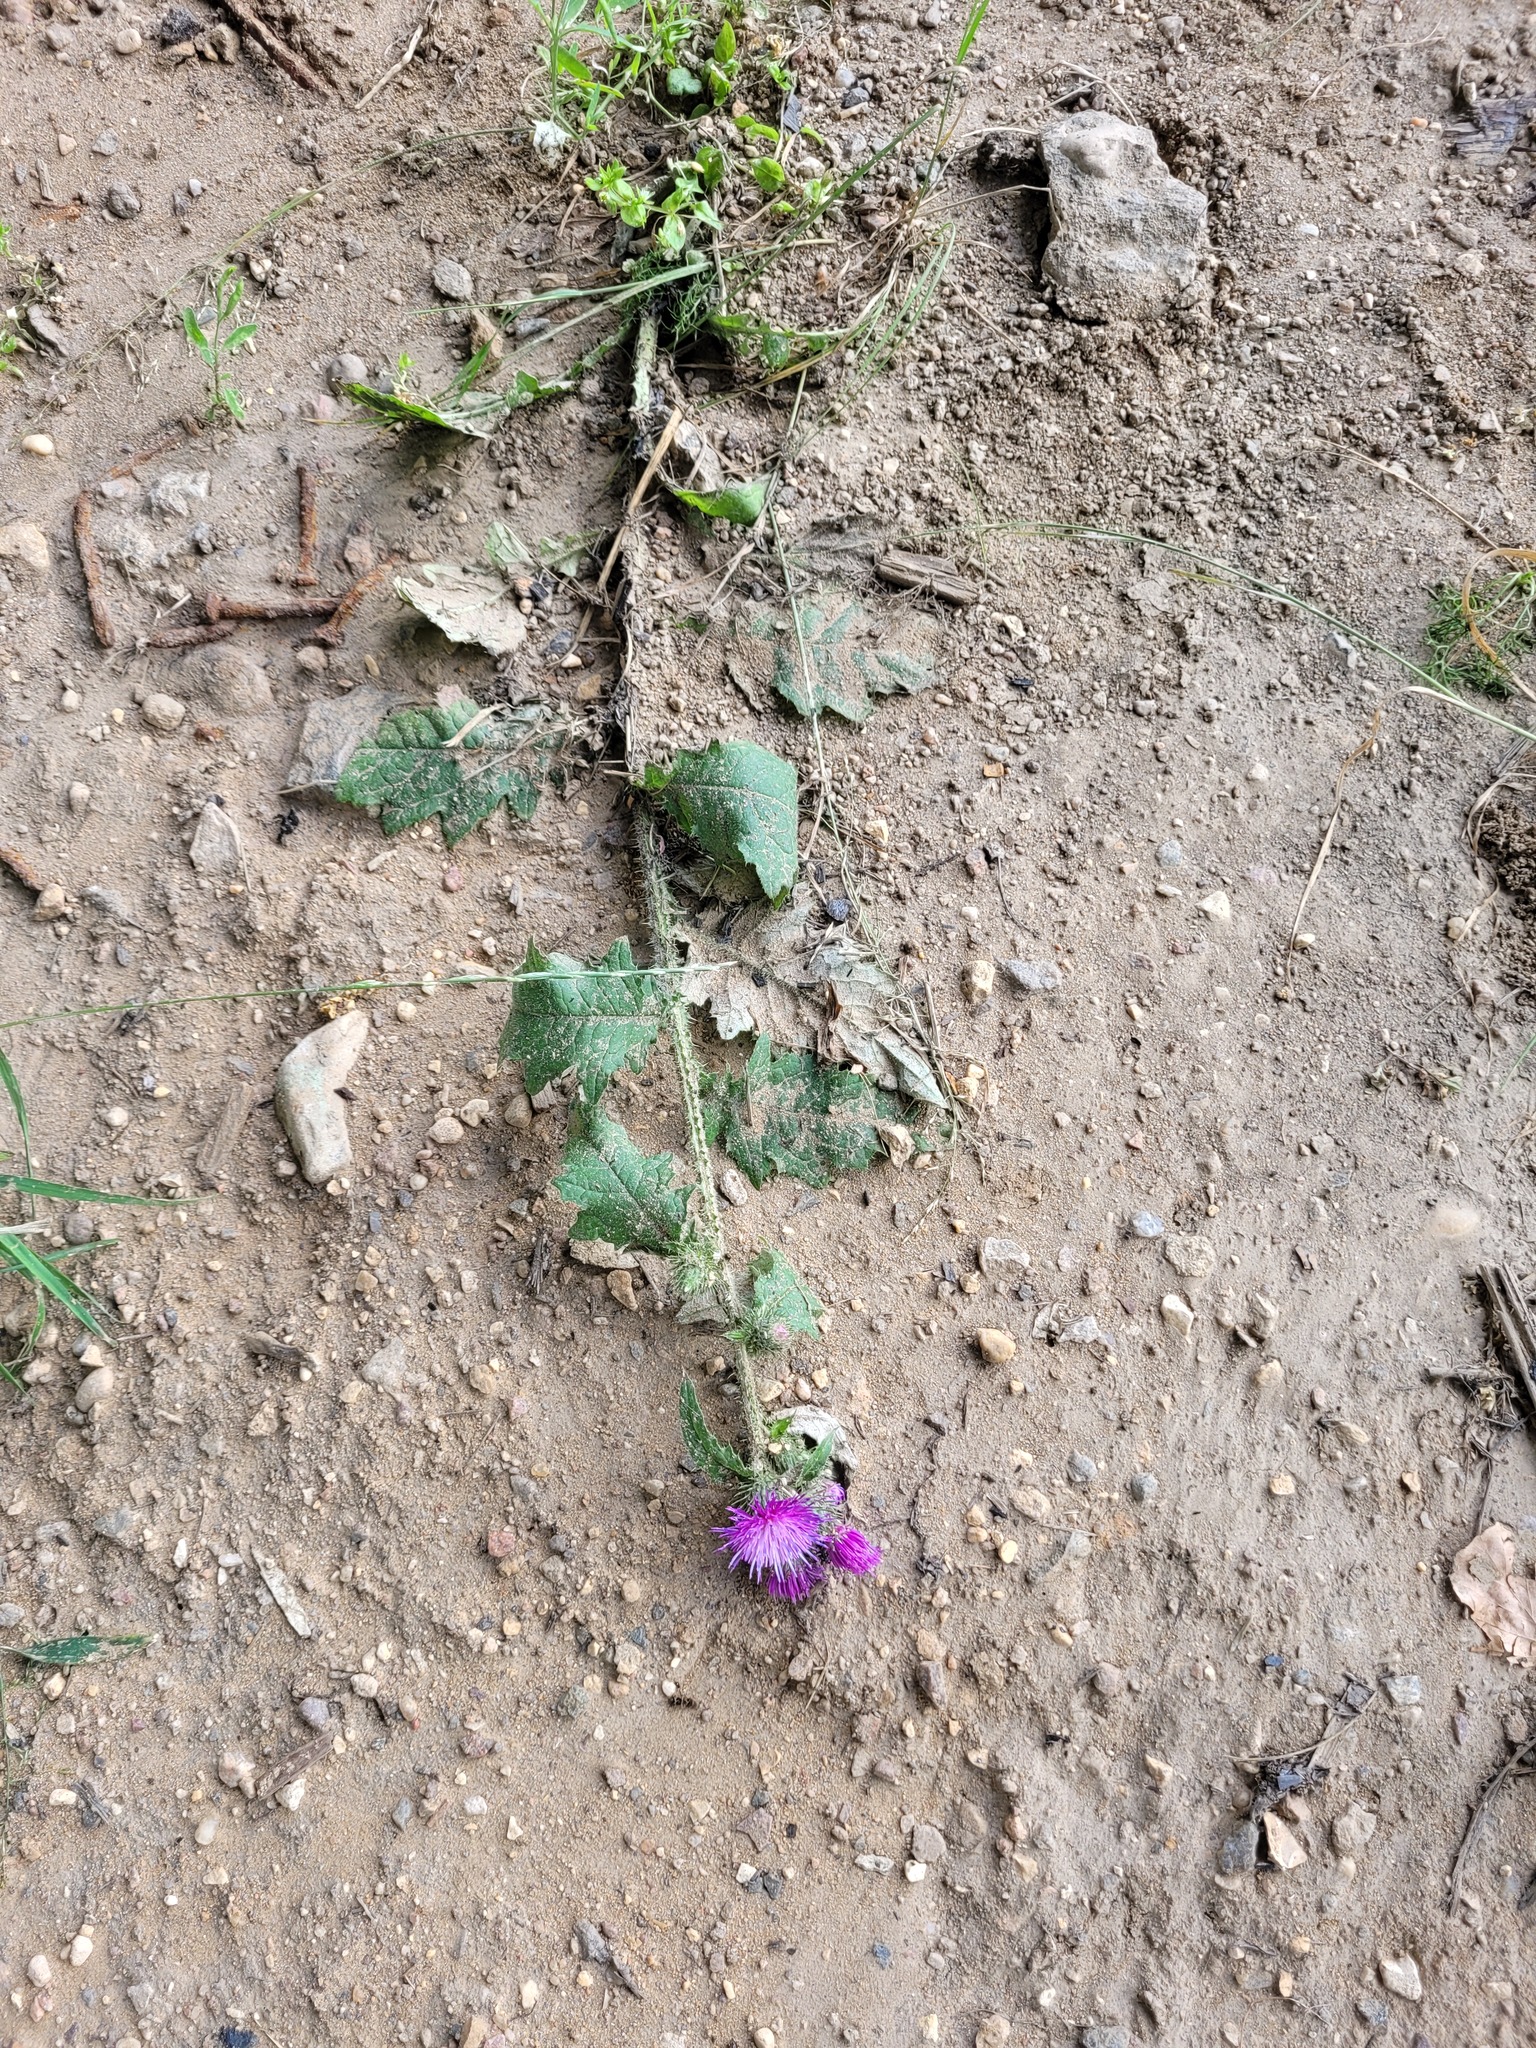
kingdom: Plantae
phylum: Tracheophyta
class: Magnoliopsida
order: Asterales
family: Asteraceae
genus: Carduus
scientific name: Carduus crispus
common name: Welted thistle
